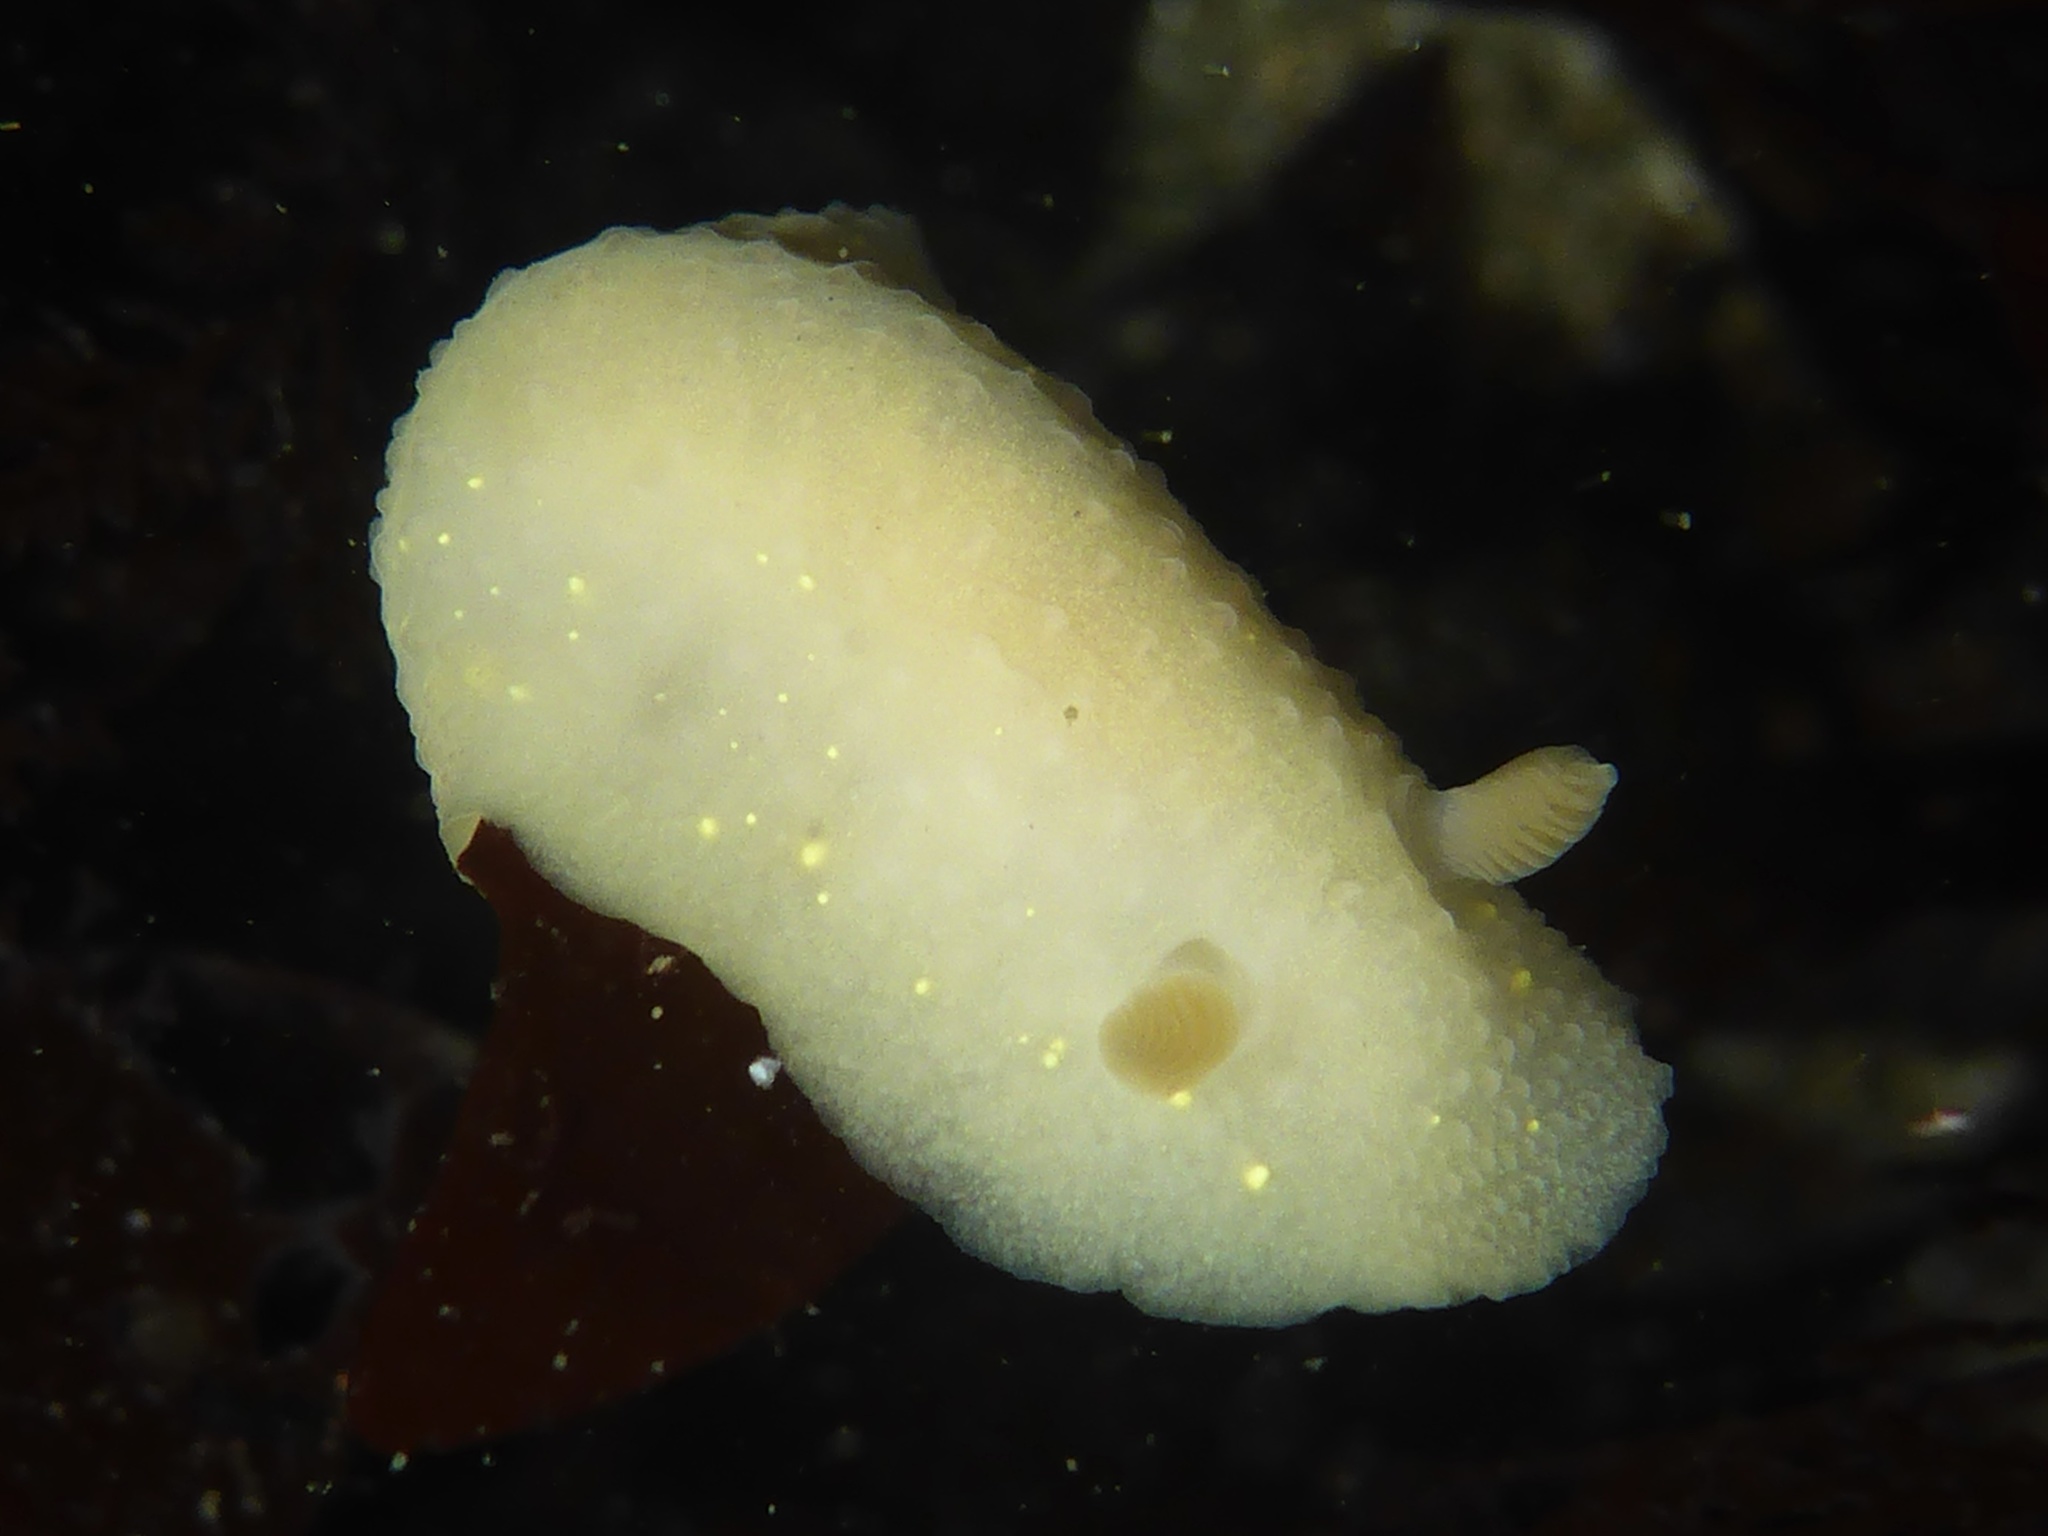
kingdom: Animalia
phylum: Mollusca
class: Gastropoda
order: Nudibranchia
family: Cadlinidae
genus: Cadlina
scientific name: Cadlina modesta
